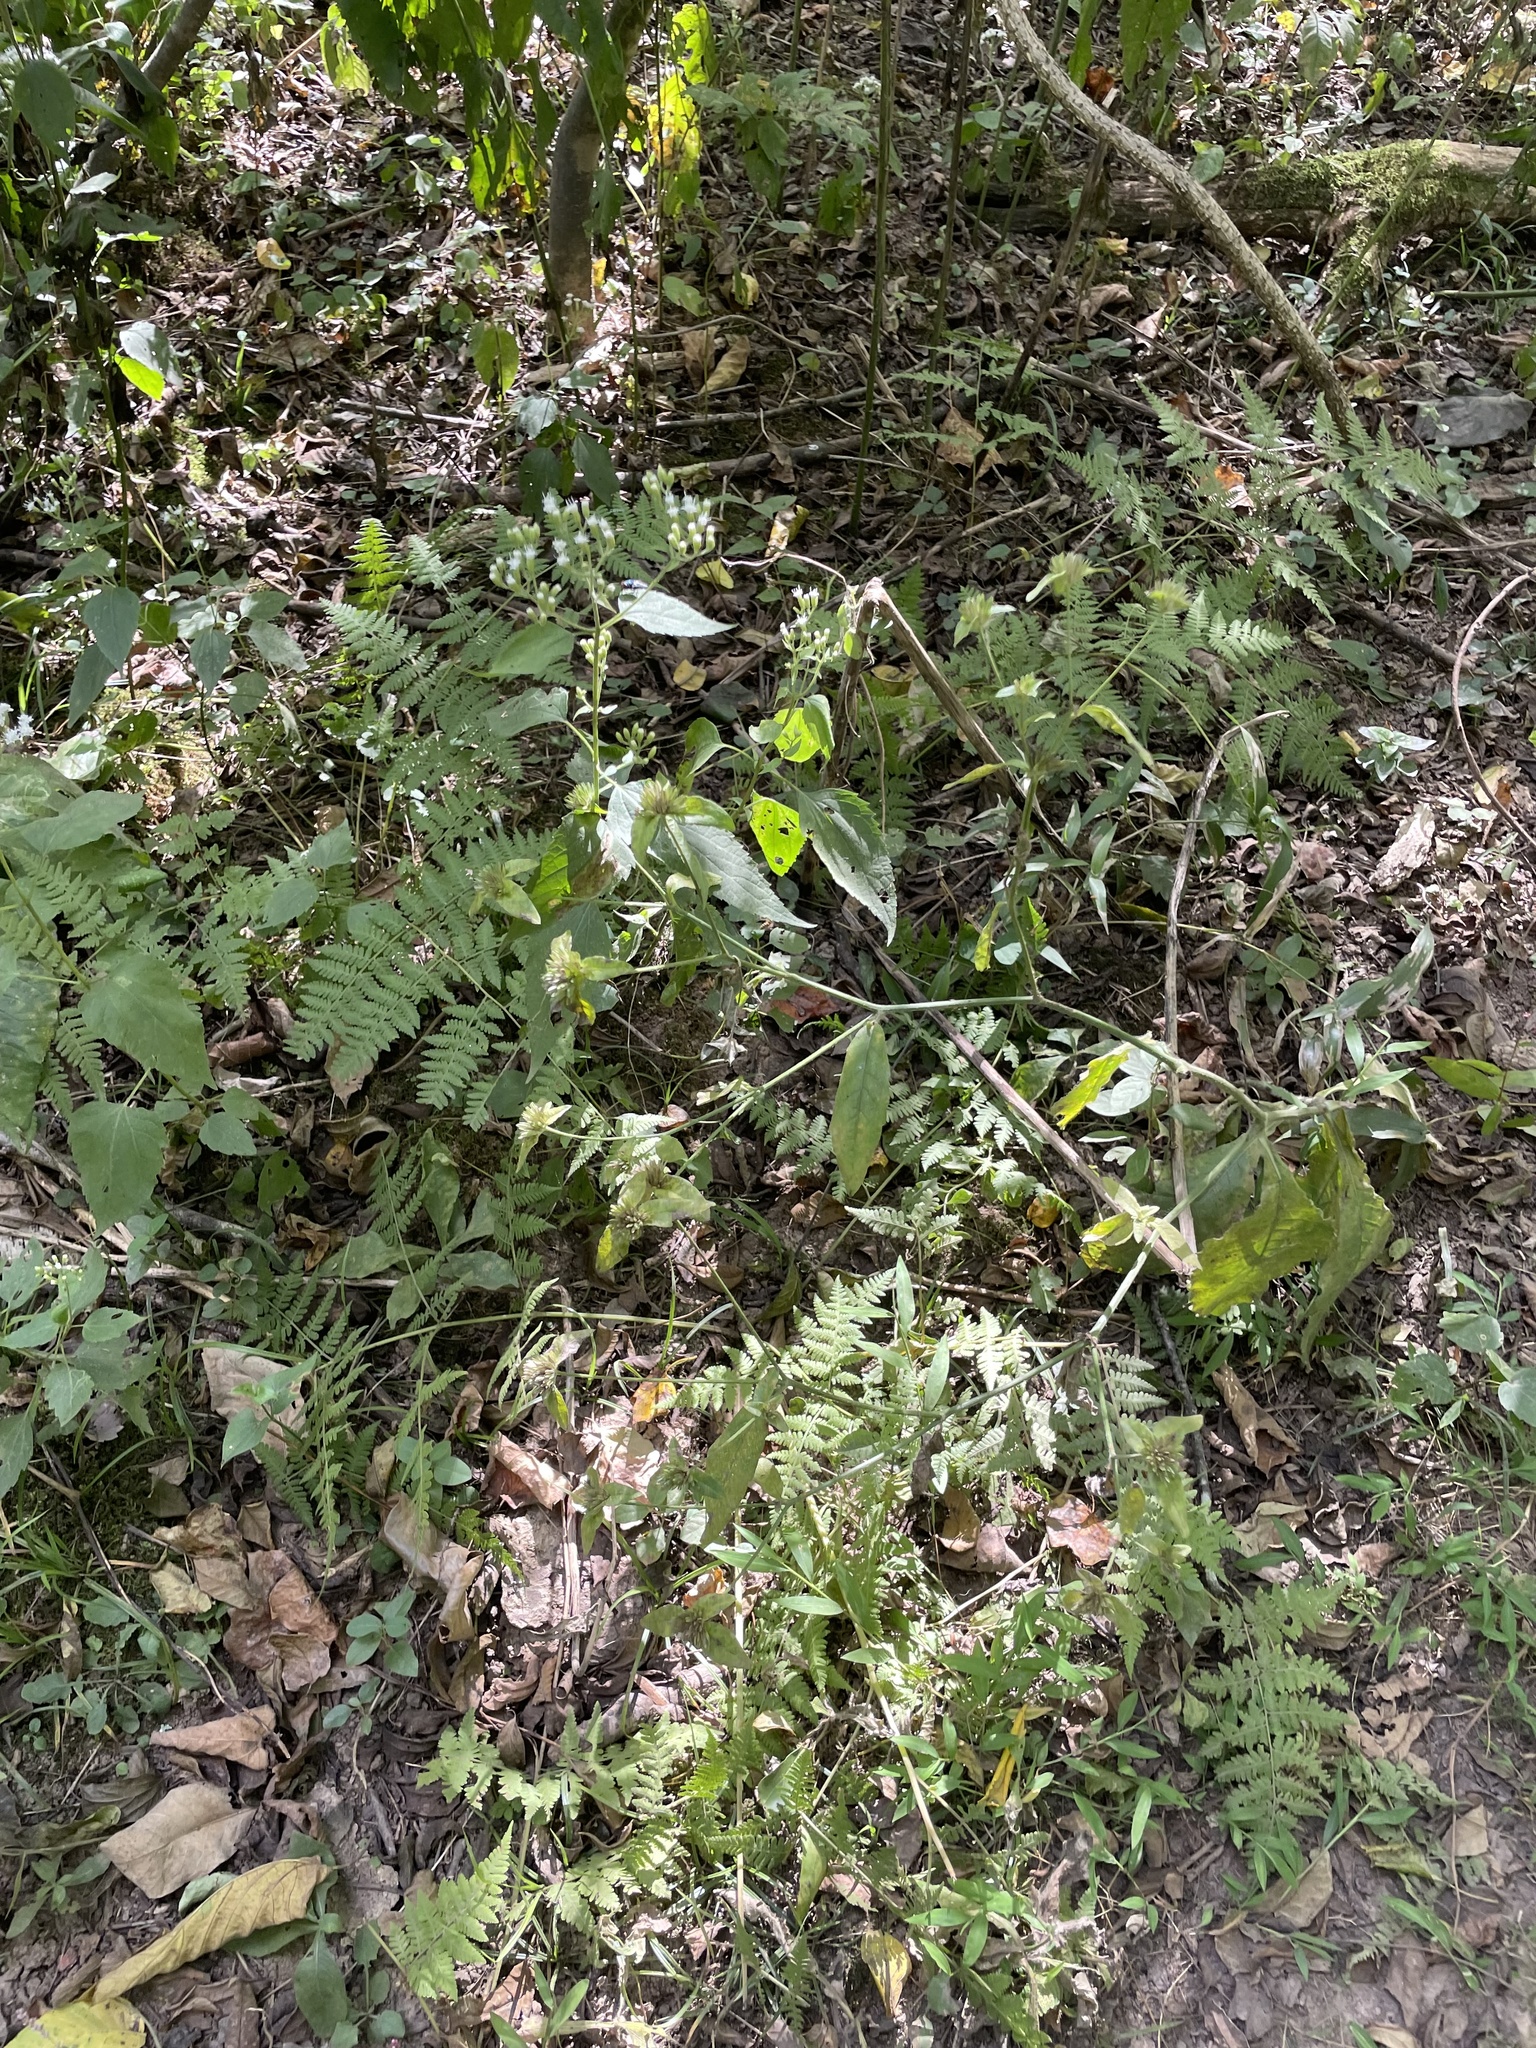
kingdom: Plantae
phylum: Tracheophyta
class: Magnoliopsida
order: Asterales
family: Asteraceae
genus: Elephantopus
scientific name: Elephantopus carolinianus
